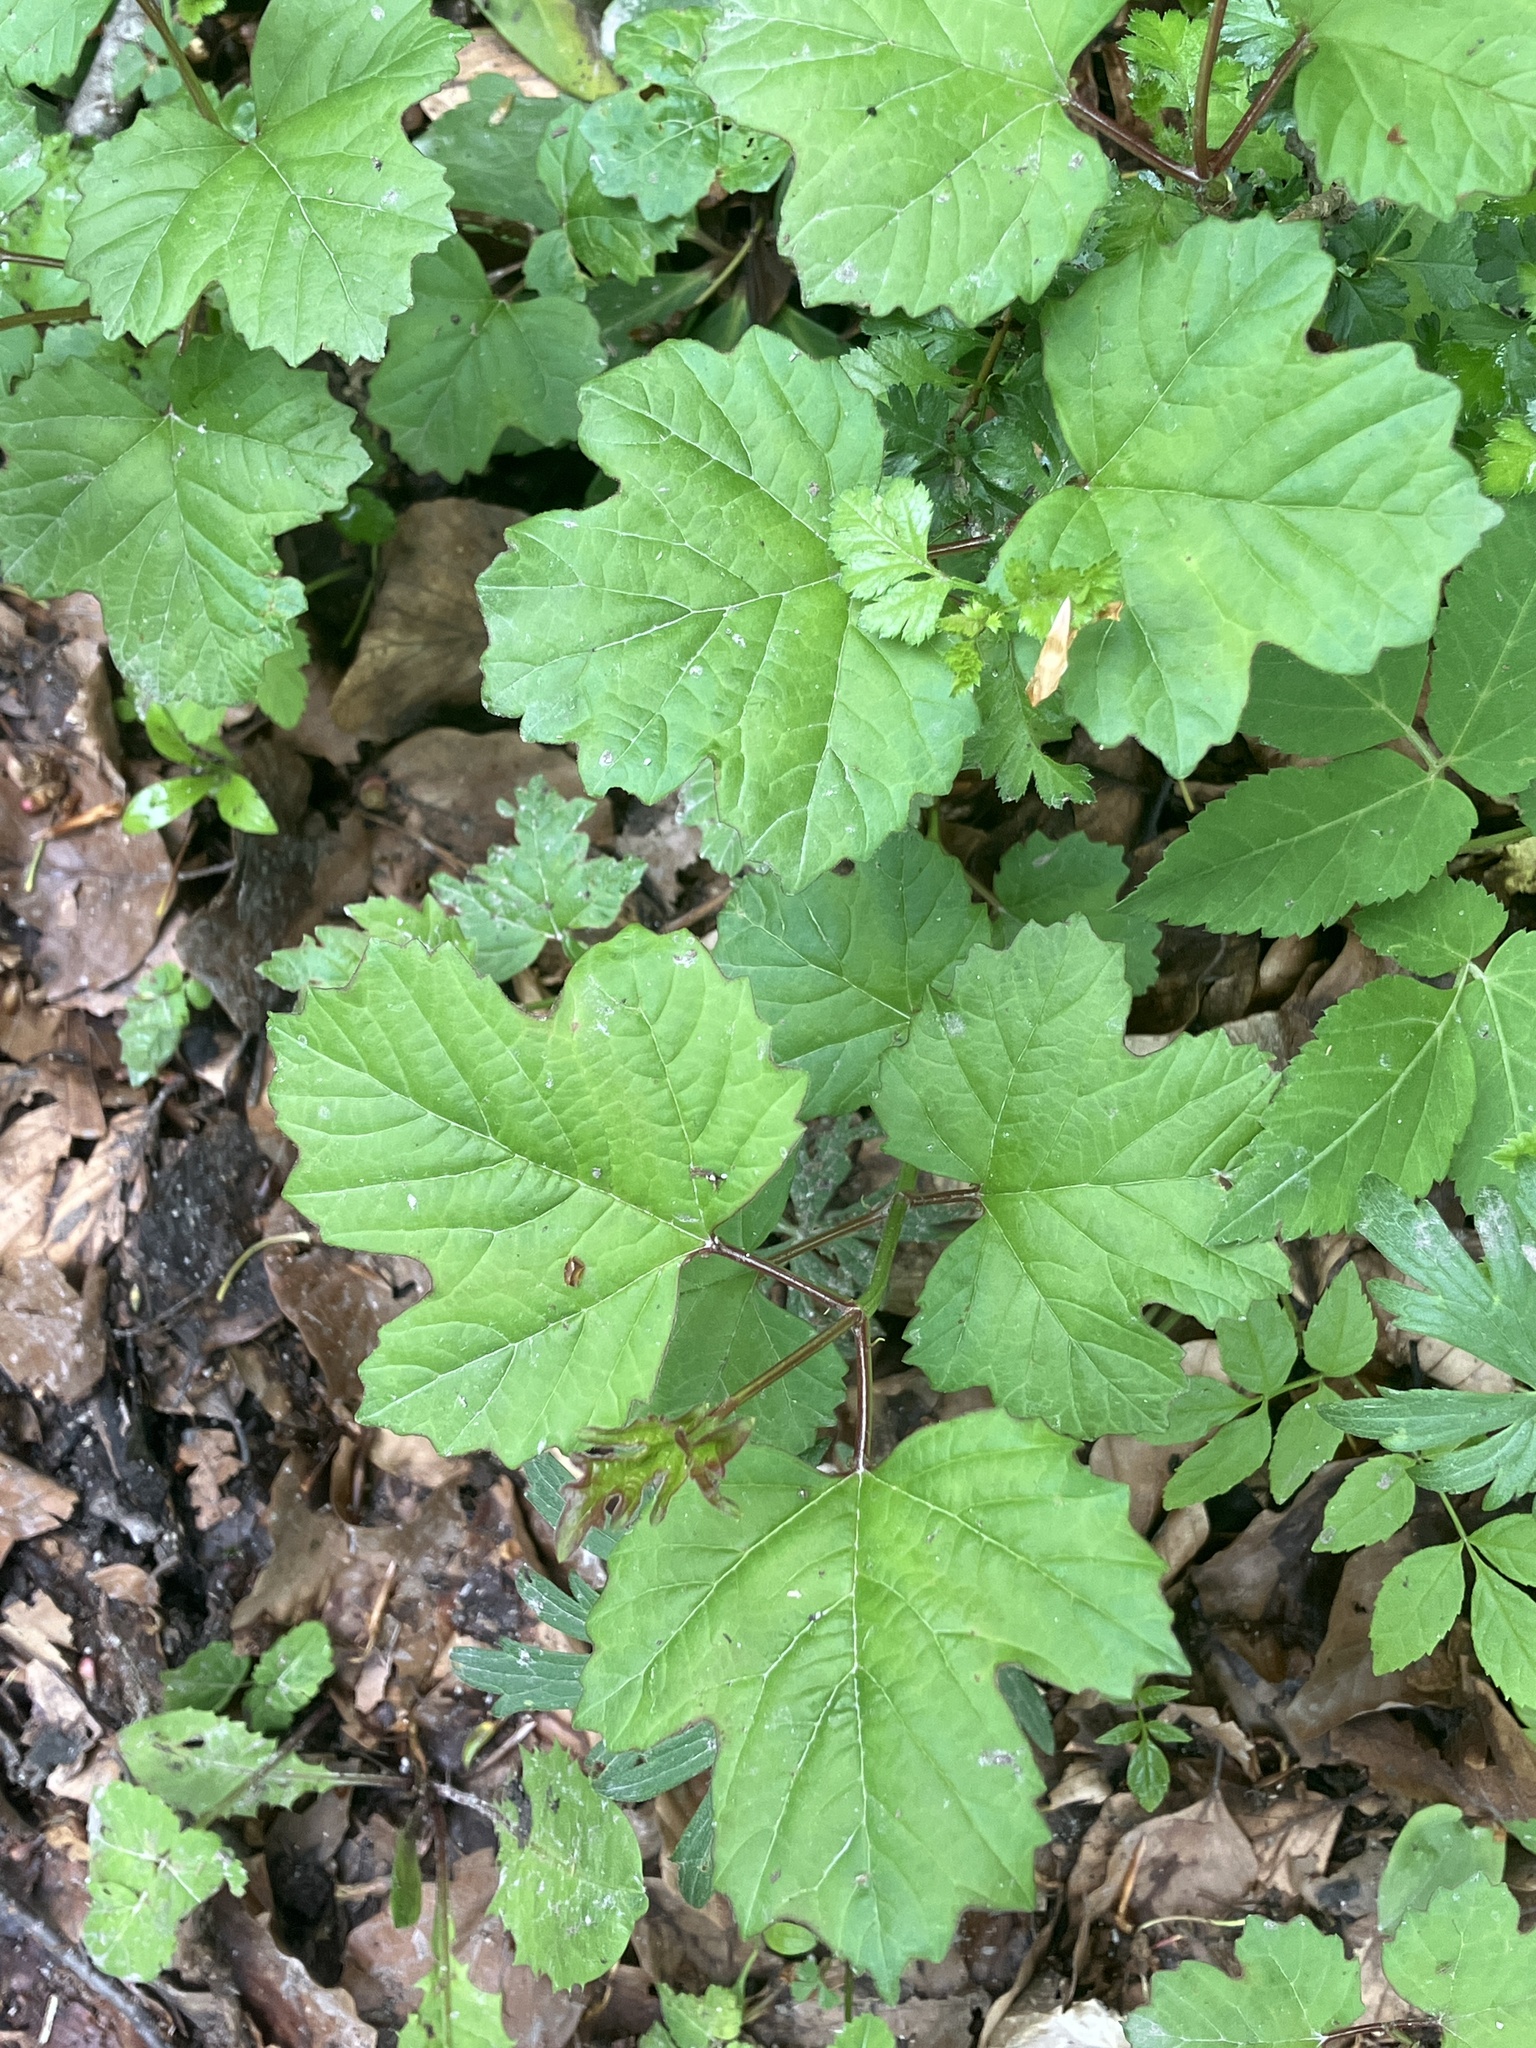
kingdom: Plantae
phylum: Tracheophyta
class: Magnoliopsida
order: Dipsacales
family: Viburnaceae
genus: Viburnum
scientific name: Viburnum opulus
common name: Guelder-rose
